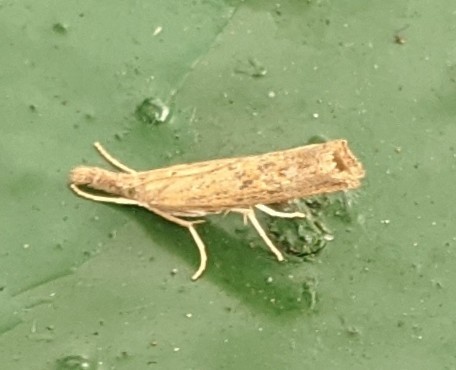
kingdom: Animalia
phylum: Arthropoda
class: Insecta
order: Lepidoptera
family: Crambidae
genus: Fissicrambus
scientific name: Fissicrambus mutabilis
